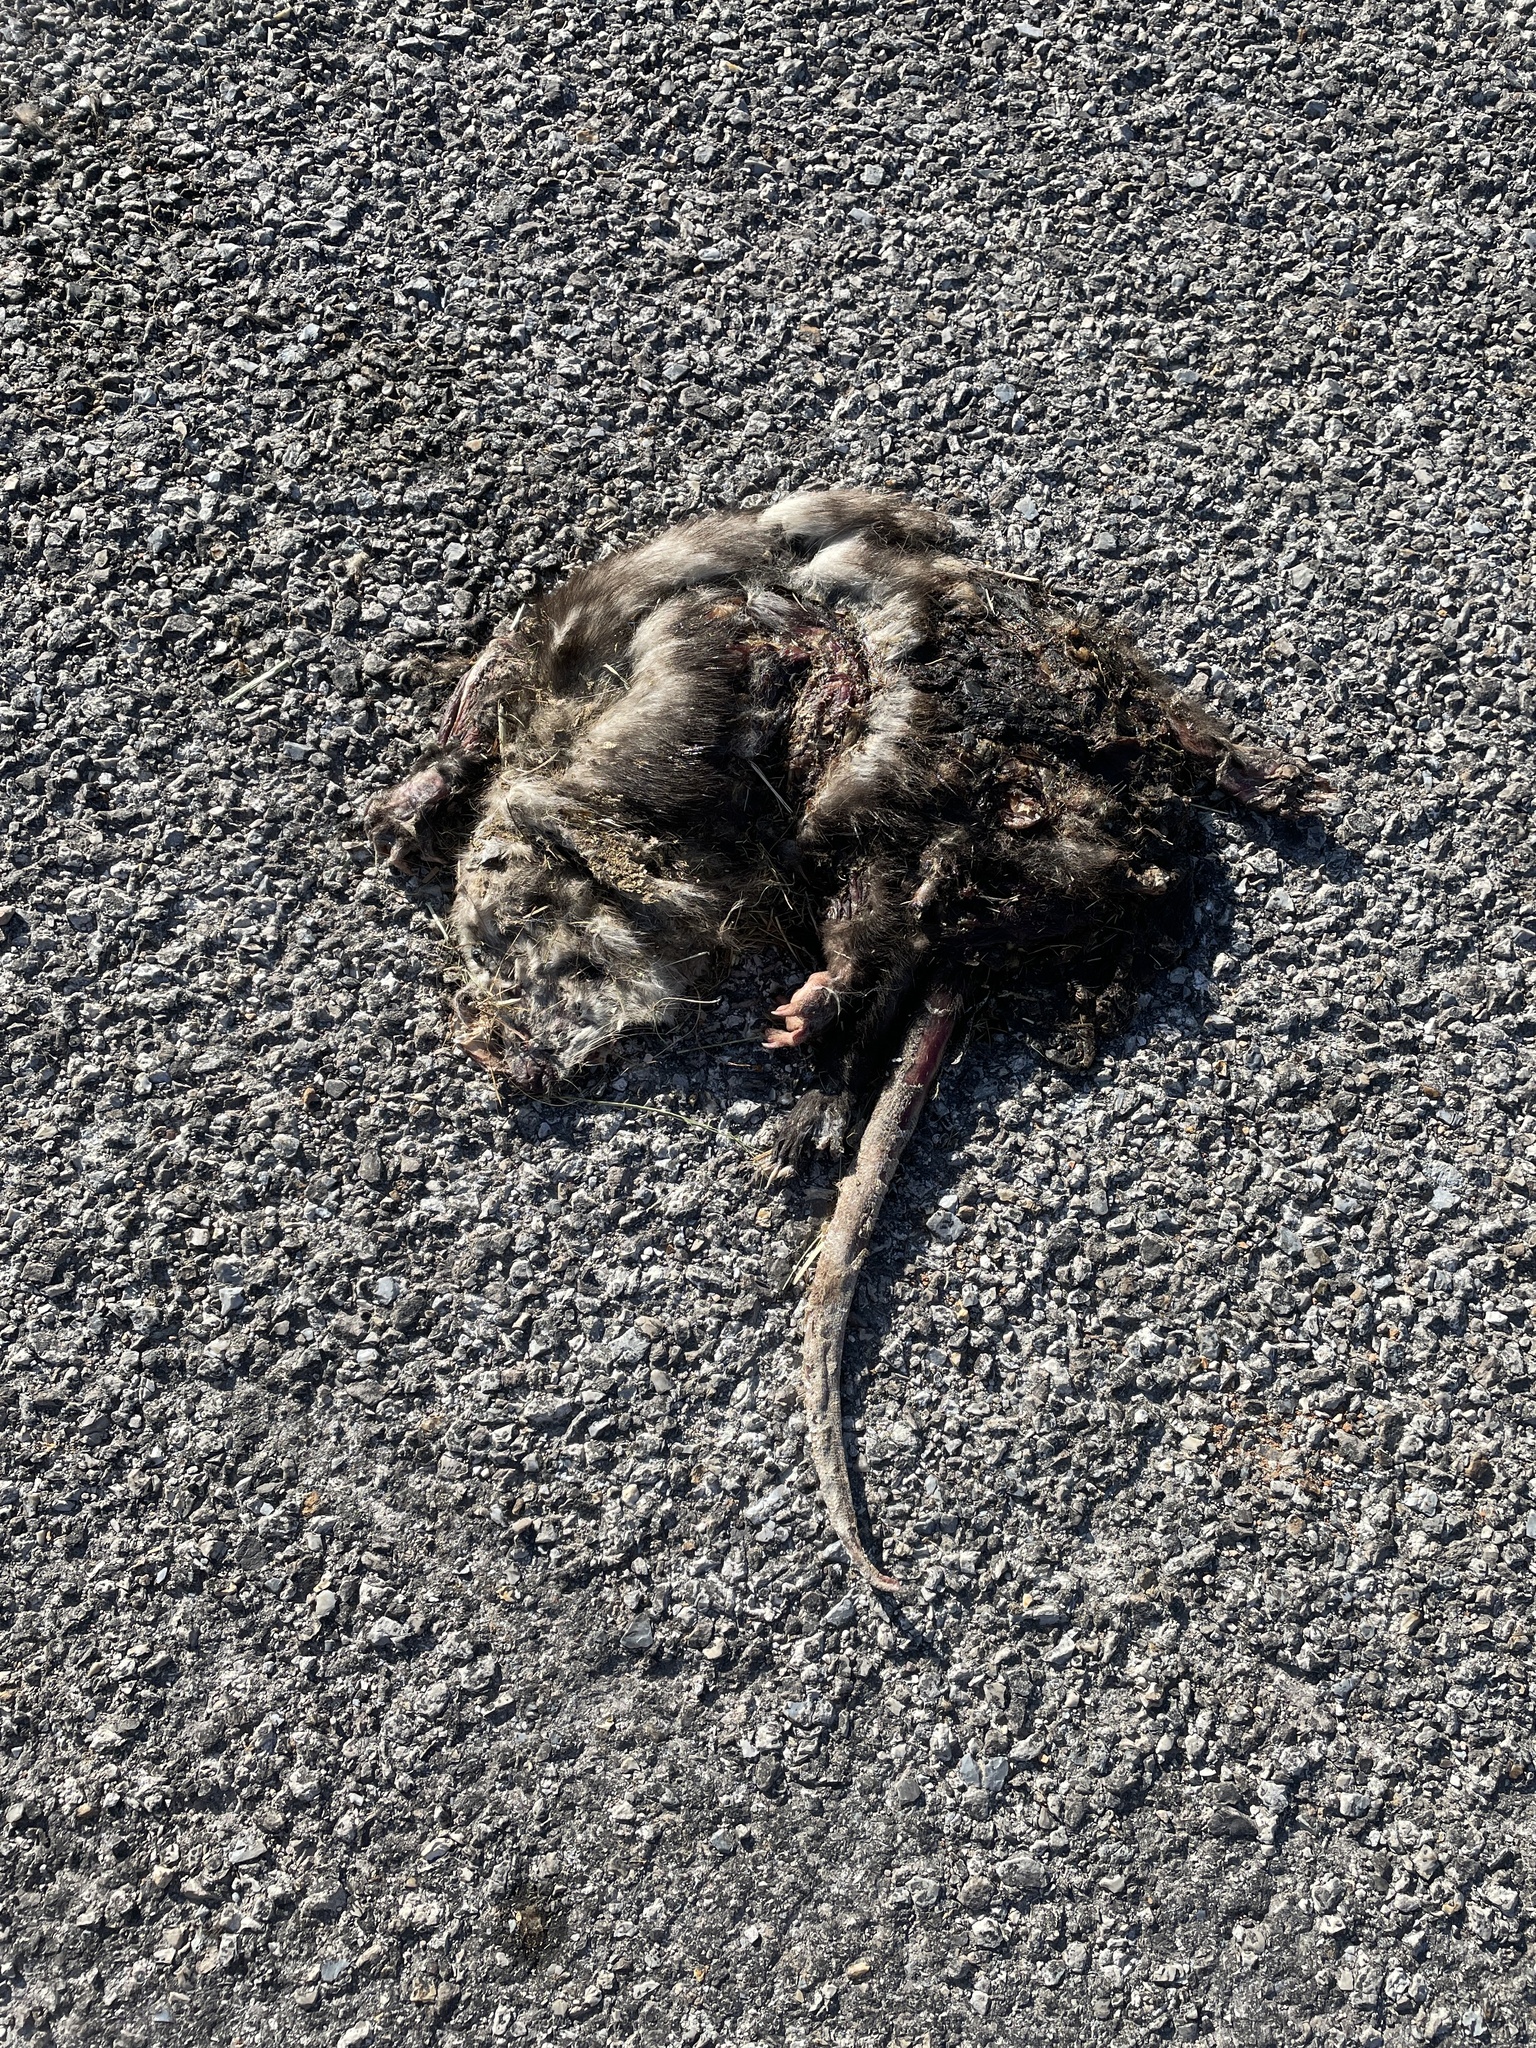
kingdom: Animalia
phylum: Chordata
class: Mammalia
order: Didelphimorphia
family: Didelphidae
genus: Didelphis
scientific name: Didelphis virginiana
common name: Virginia opossum
